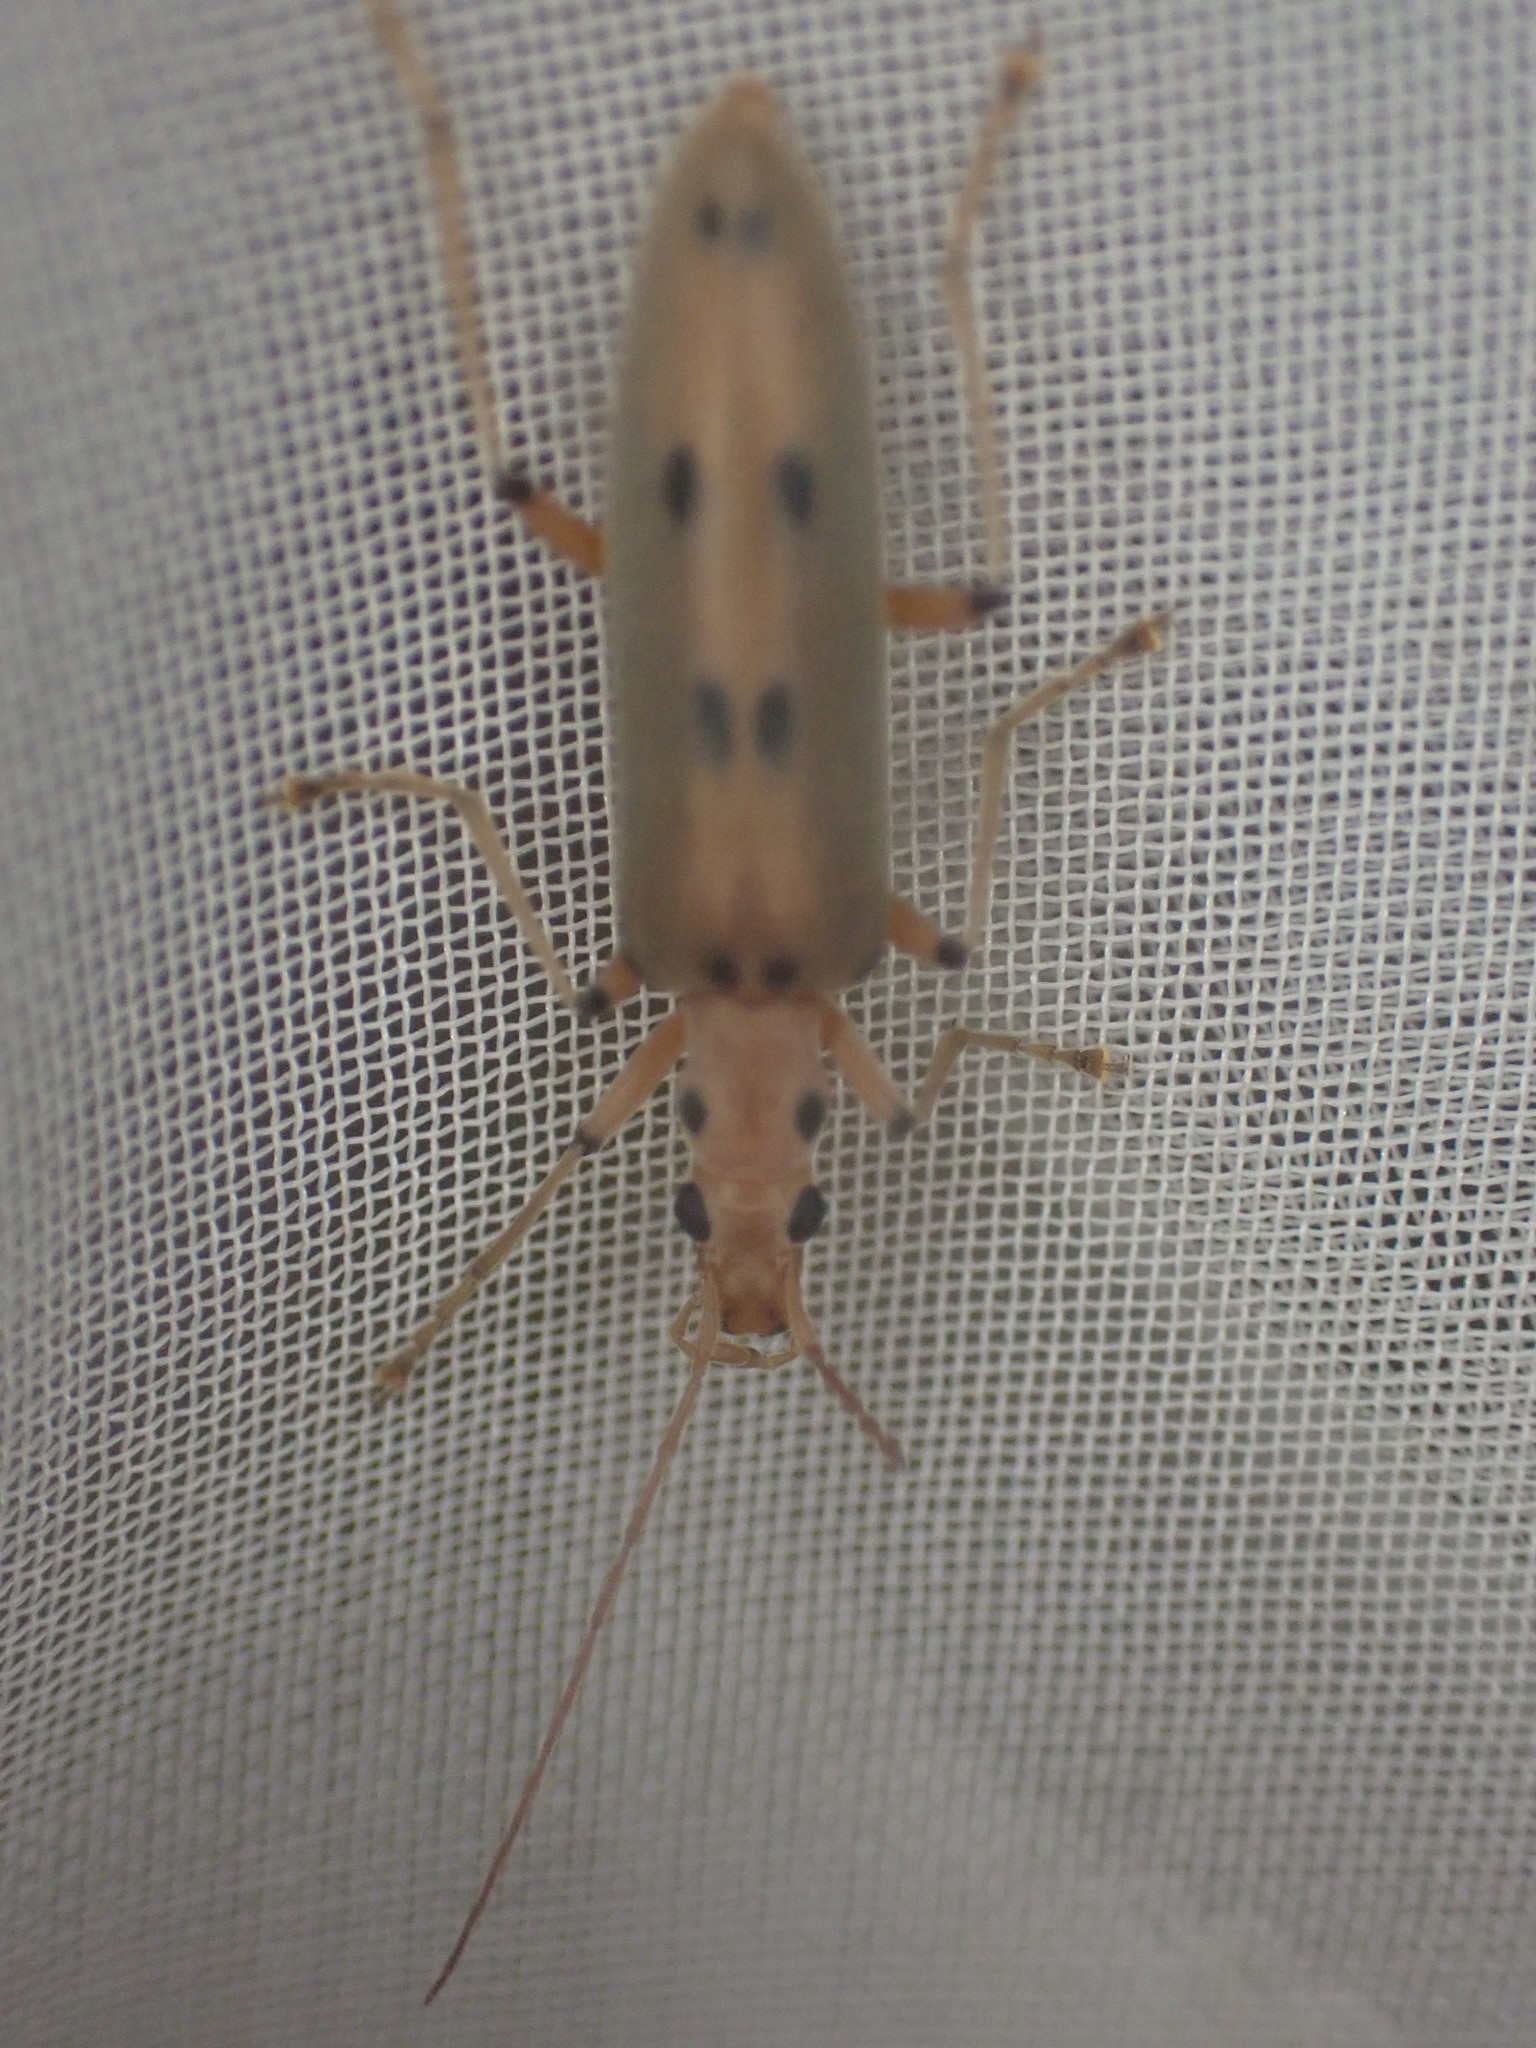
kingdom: Animalia
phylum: Arthropoda
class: Insecta
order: Coleoptera
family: Oedemeridae
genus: Parisopalpus
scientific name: Parisopalpus
